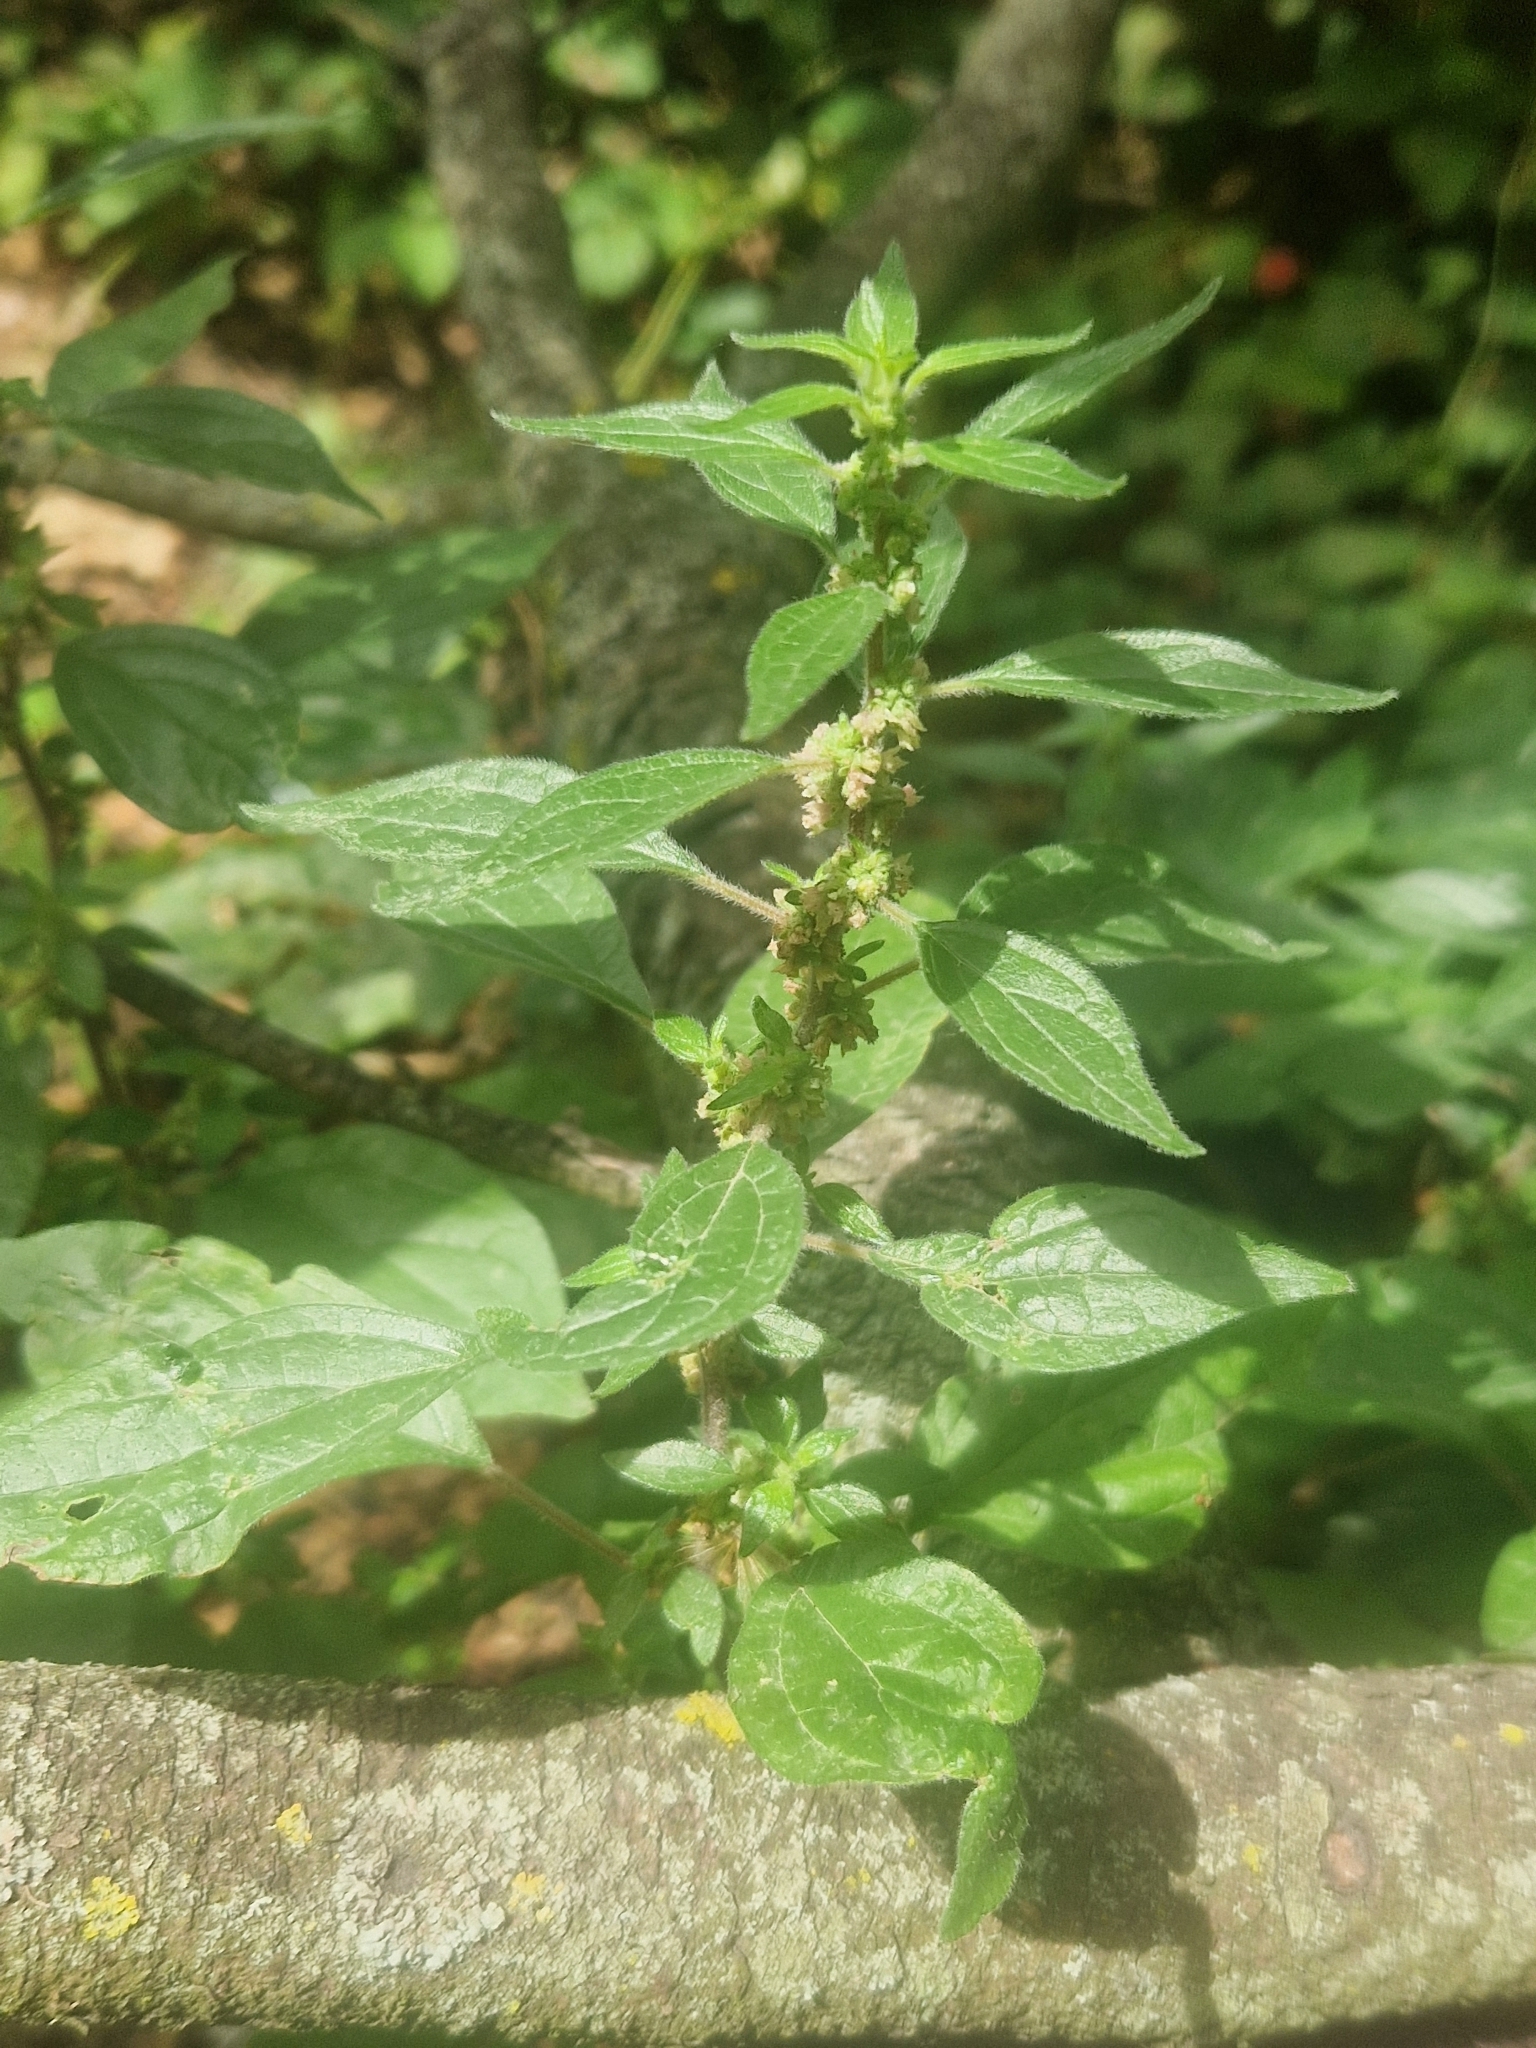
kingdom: Plantae
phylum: Tracheophyta
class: Magnoliopsida
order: Rosales
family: Urticaceae
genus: Parietaria
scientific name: Parietaria judaica
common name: Pellitory-of-the-wall
